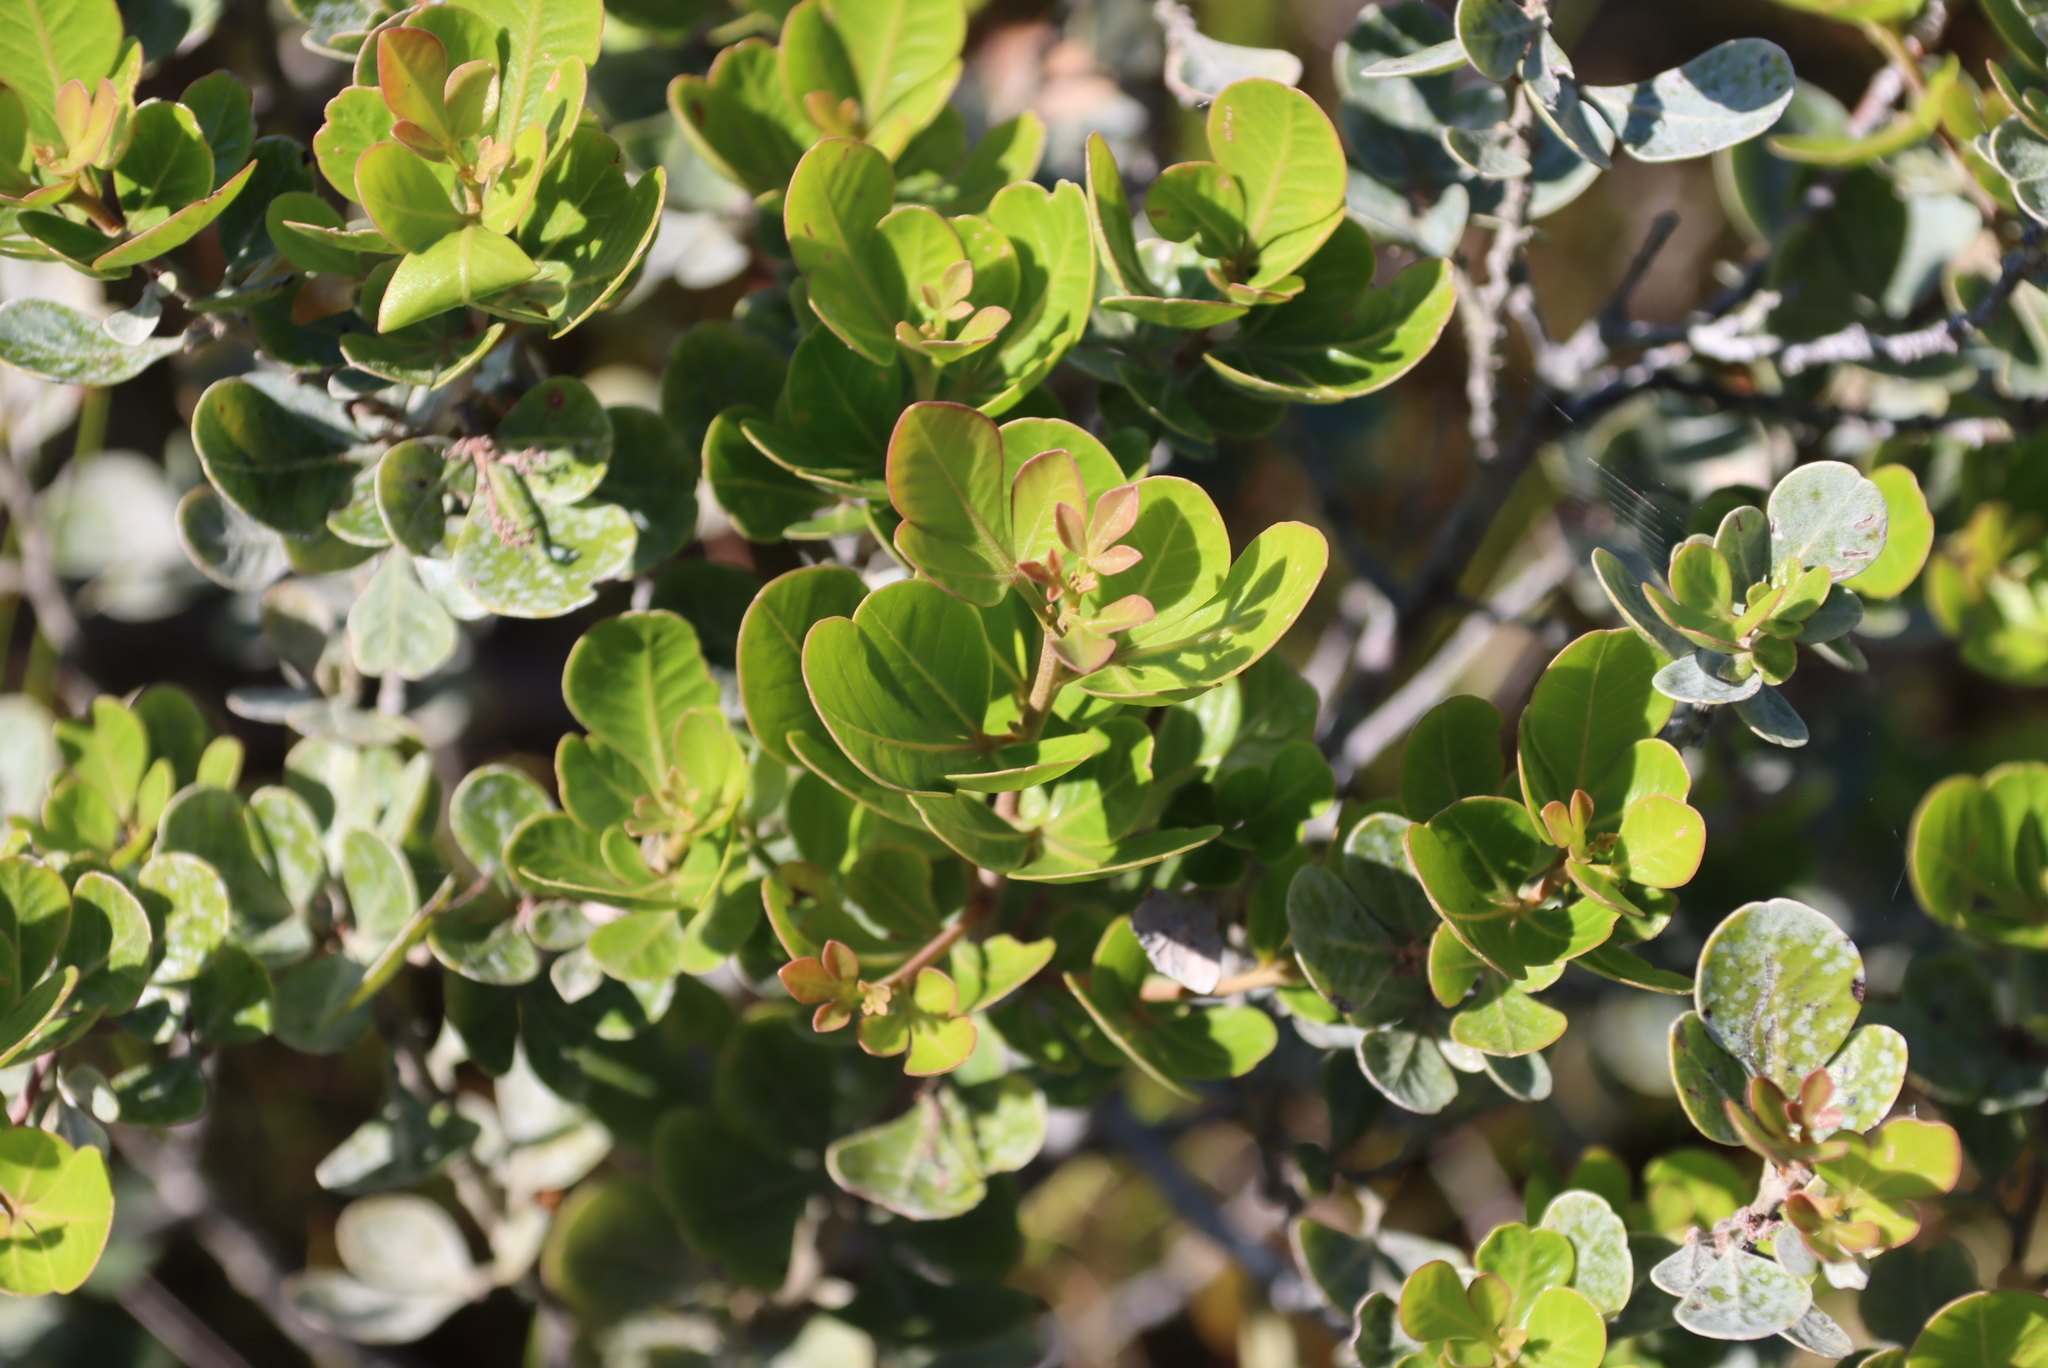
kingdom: Plantae
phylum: Tracheophyta
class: Magnoliopsida
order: Sapindales
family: Anacardiaceae
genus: Searsia
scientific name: Searsia lucida
